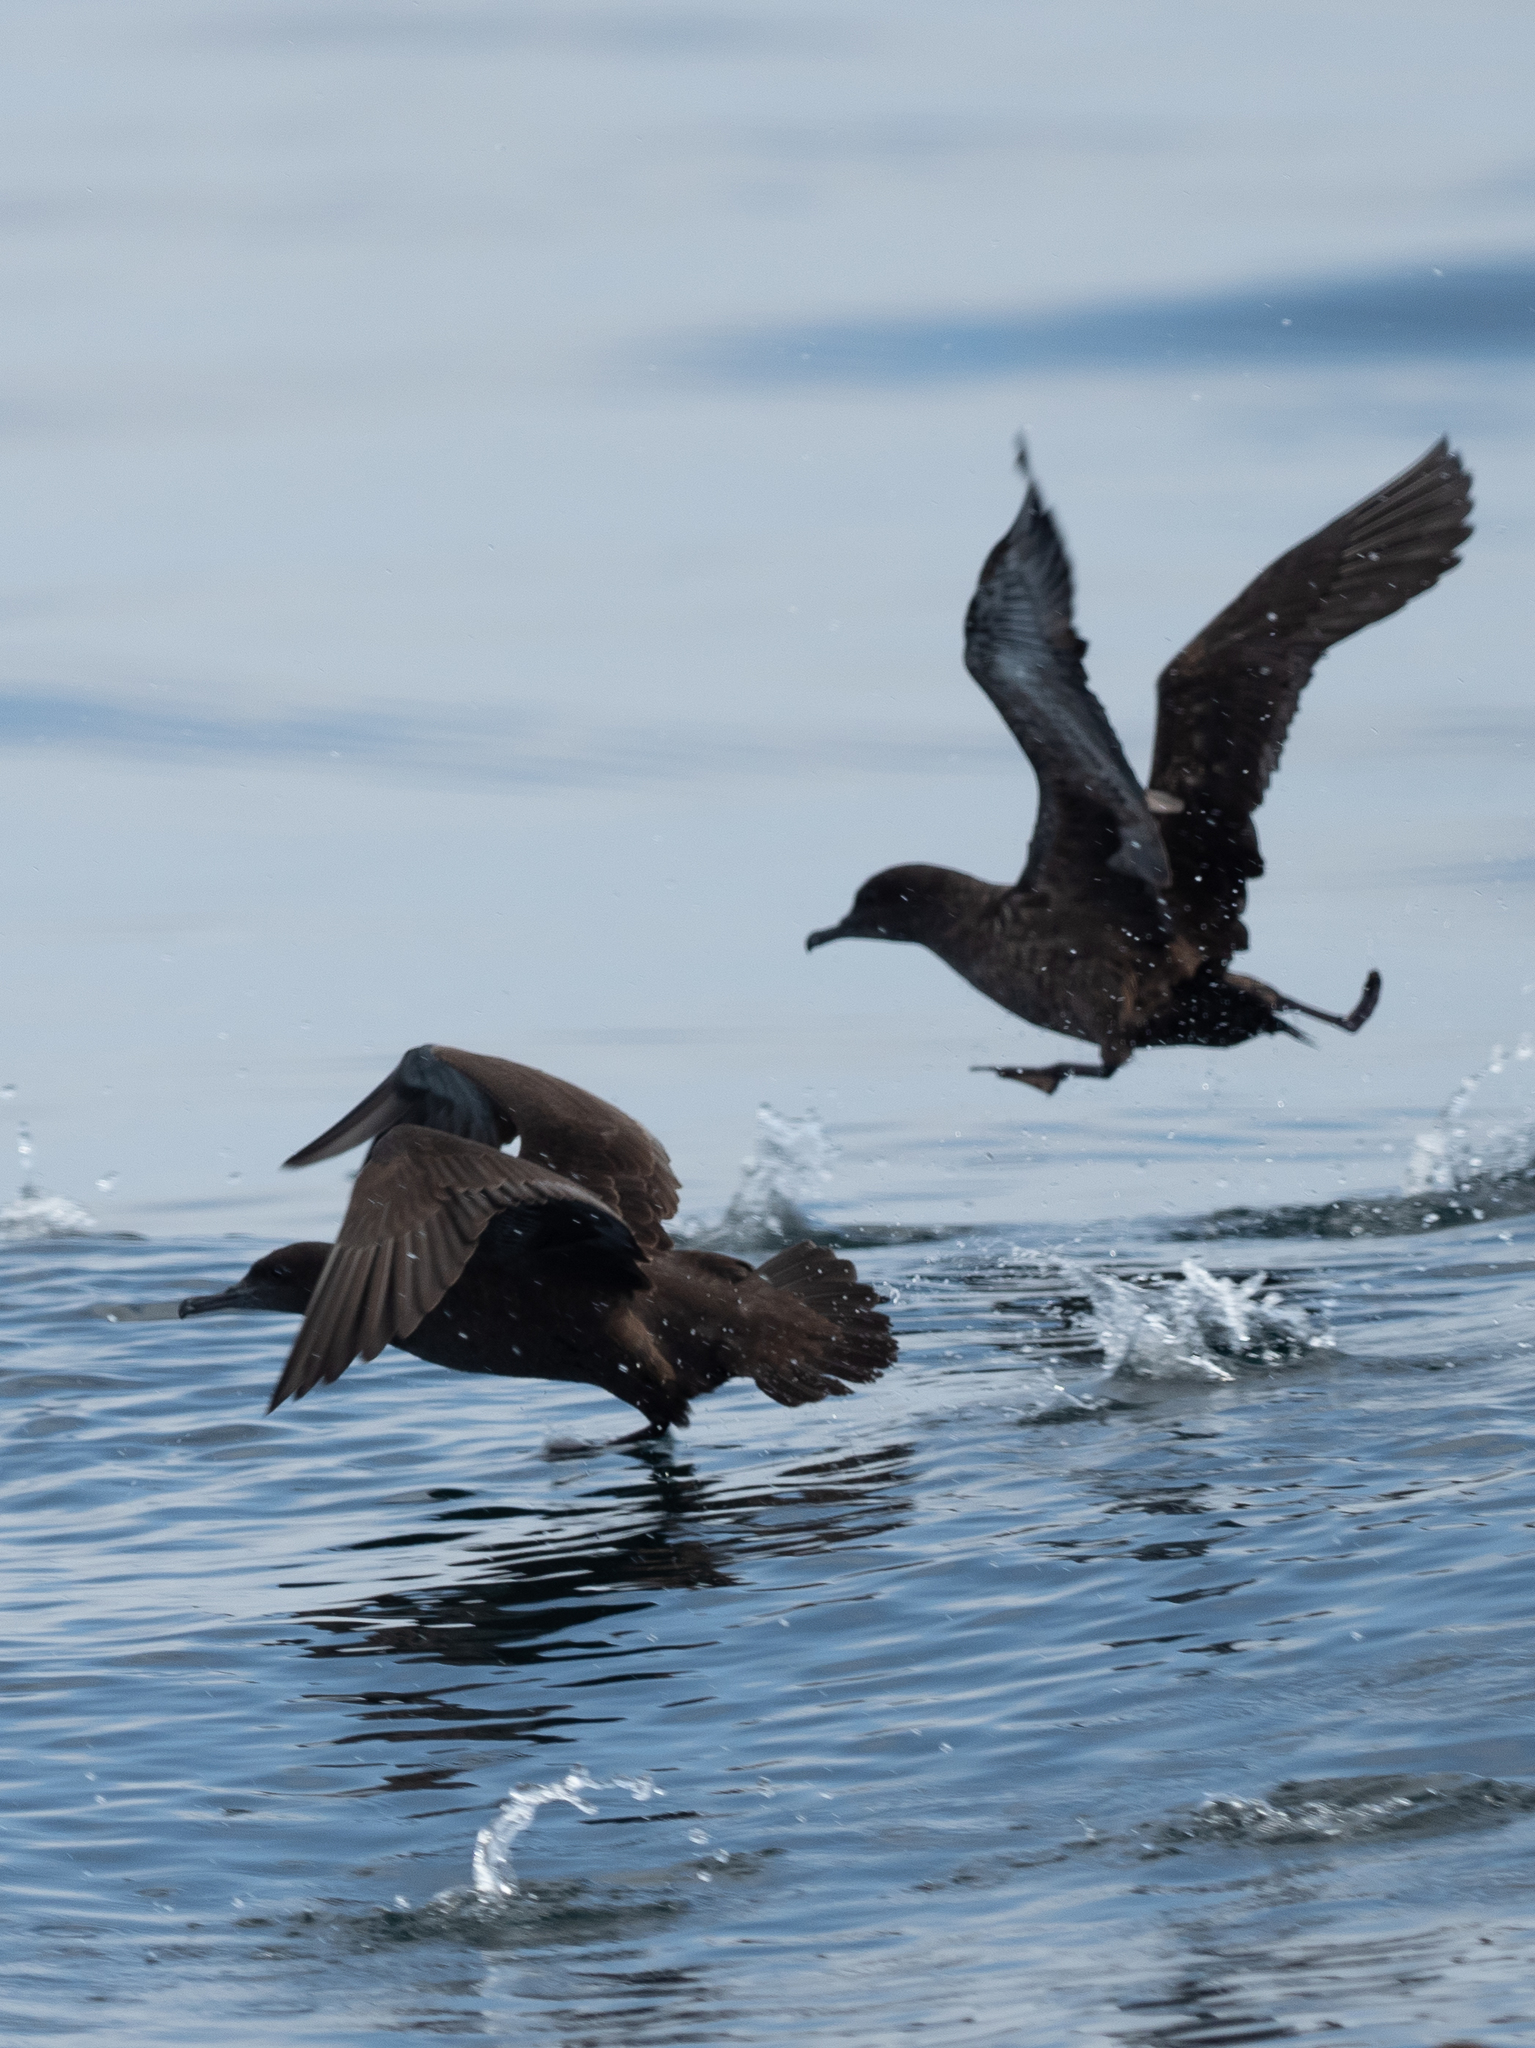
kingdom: Animalia
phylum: Chordata
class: Aves
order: Procellariiformes
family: Procellariidae
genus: Puffinus
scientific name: Puffinus griseus
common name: Sooty shearwater
